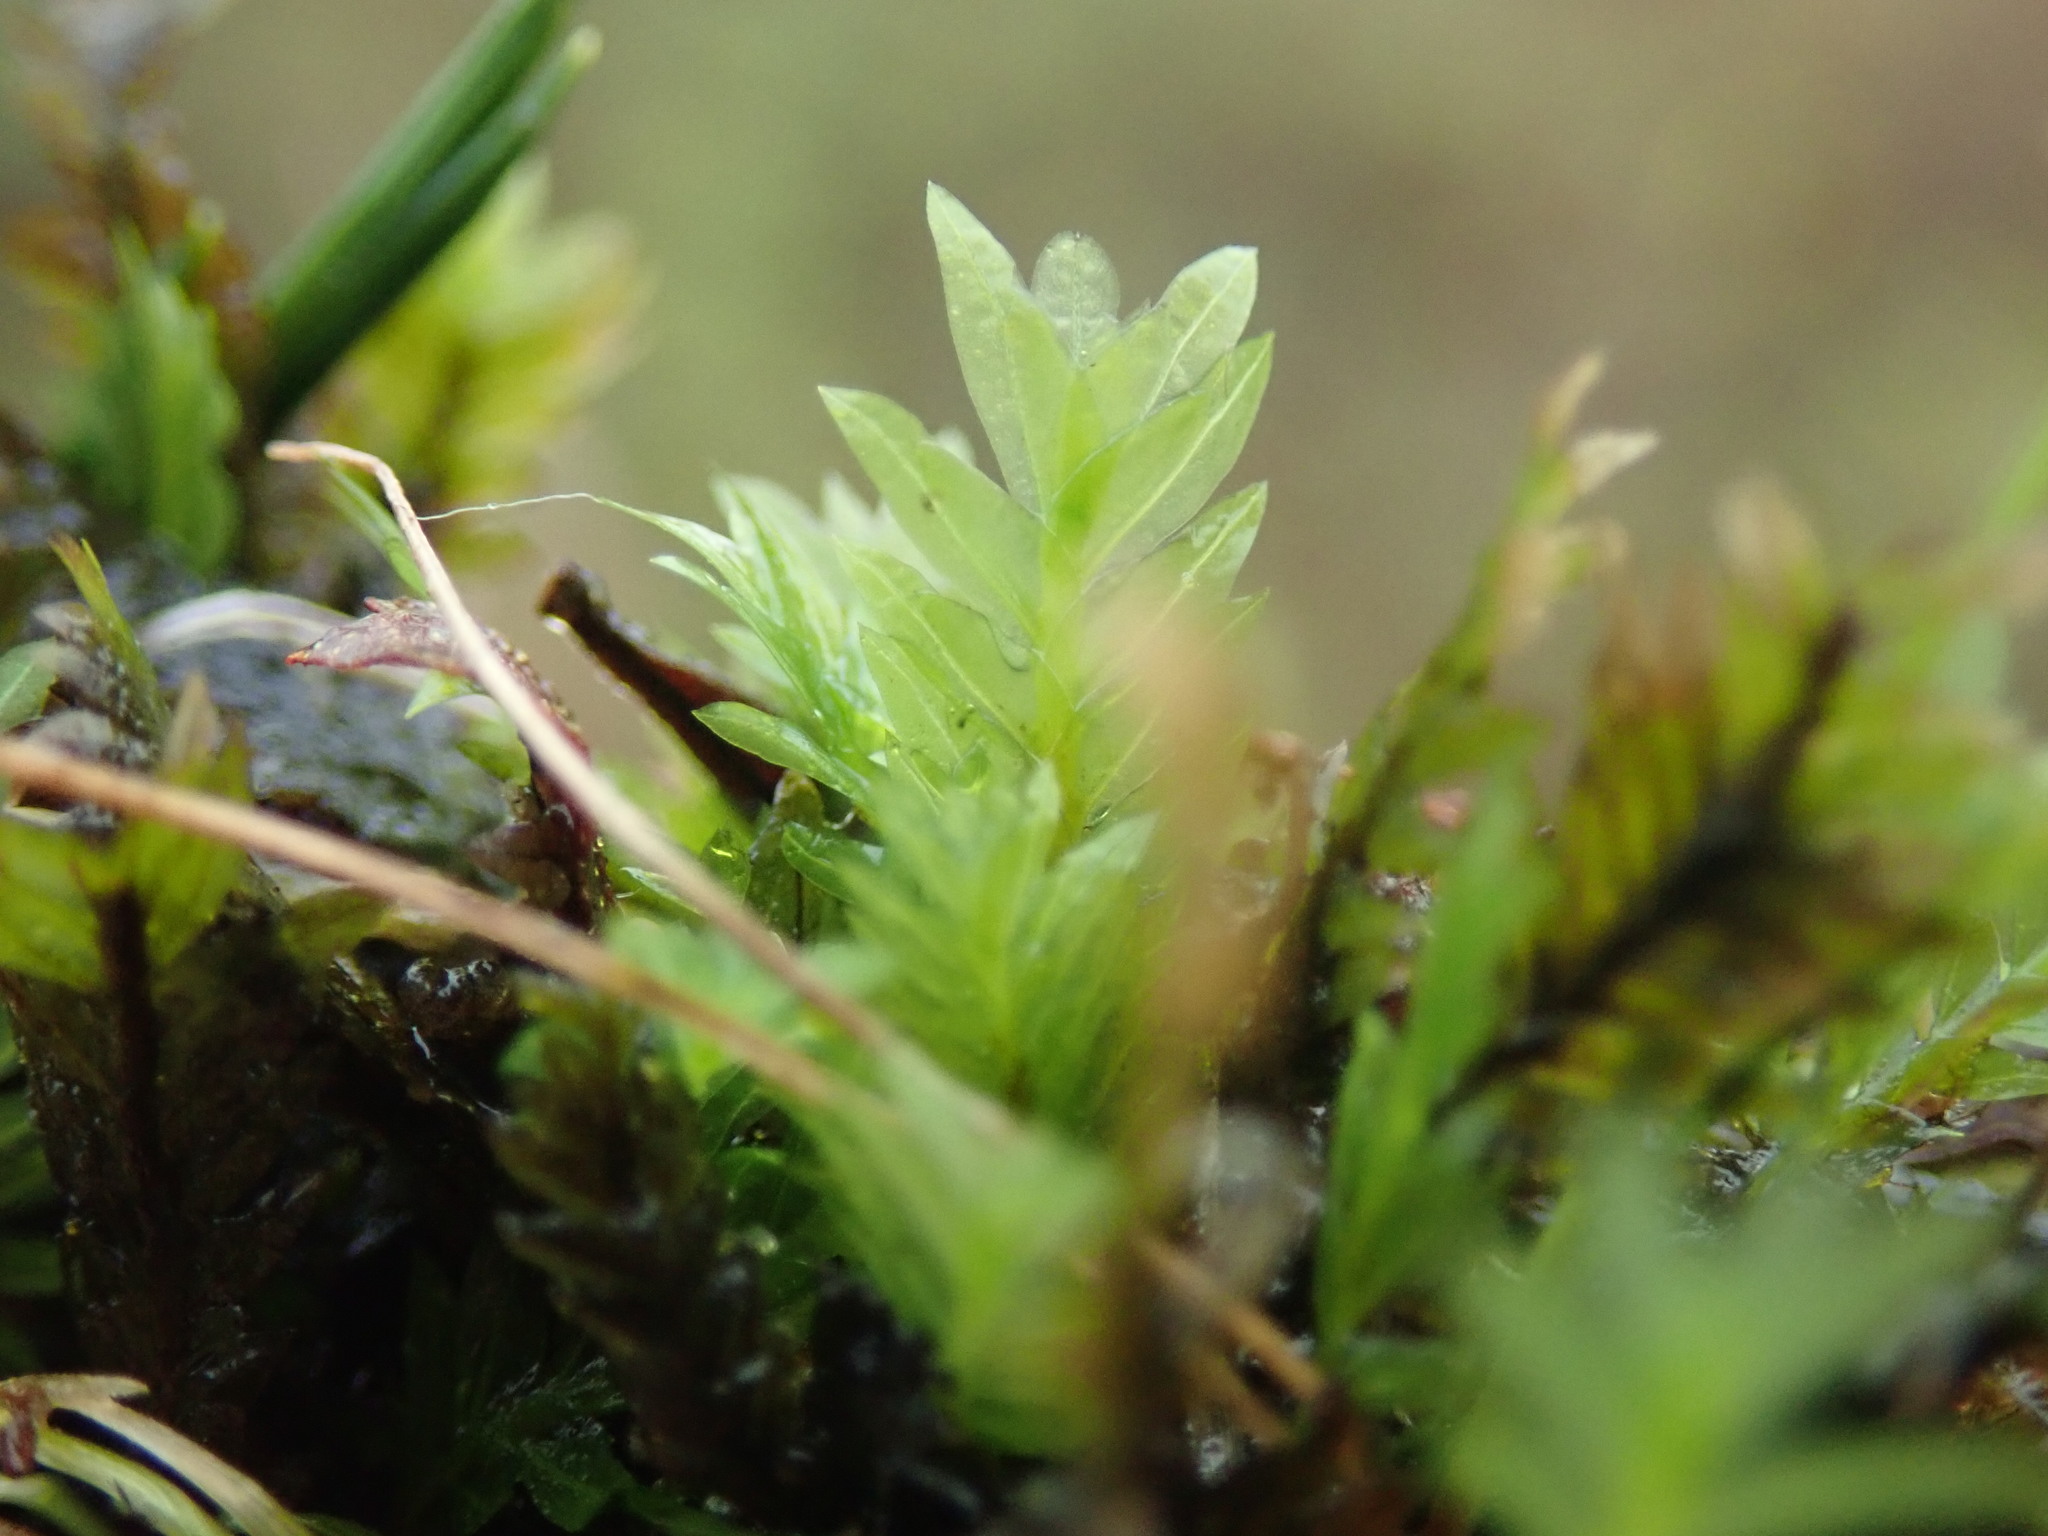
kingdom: Plantae
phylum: Bryophyta
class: Bryopsida
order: Dicranales
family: Fissidentaceae
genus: Fissidens
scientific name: Fissidens adianthoides
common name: Maidenhair pocket moss
